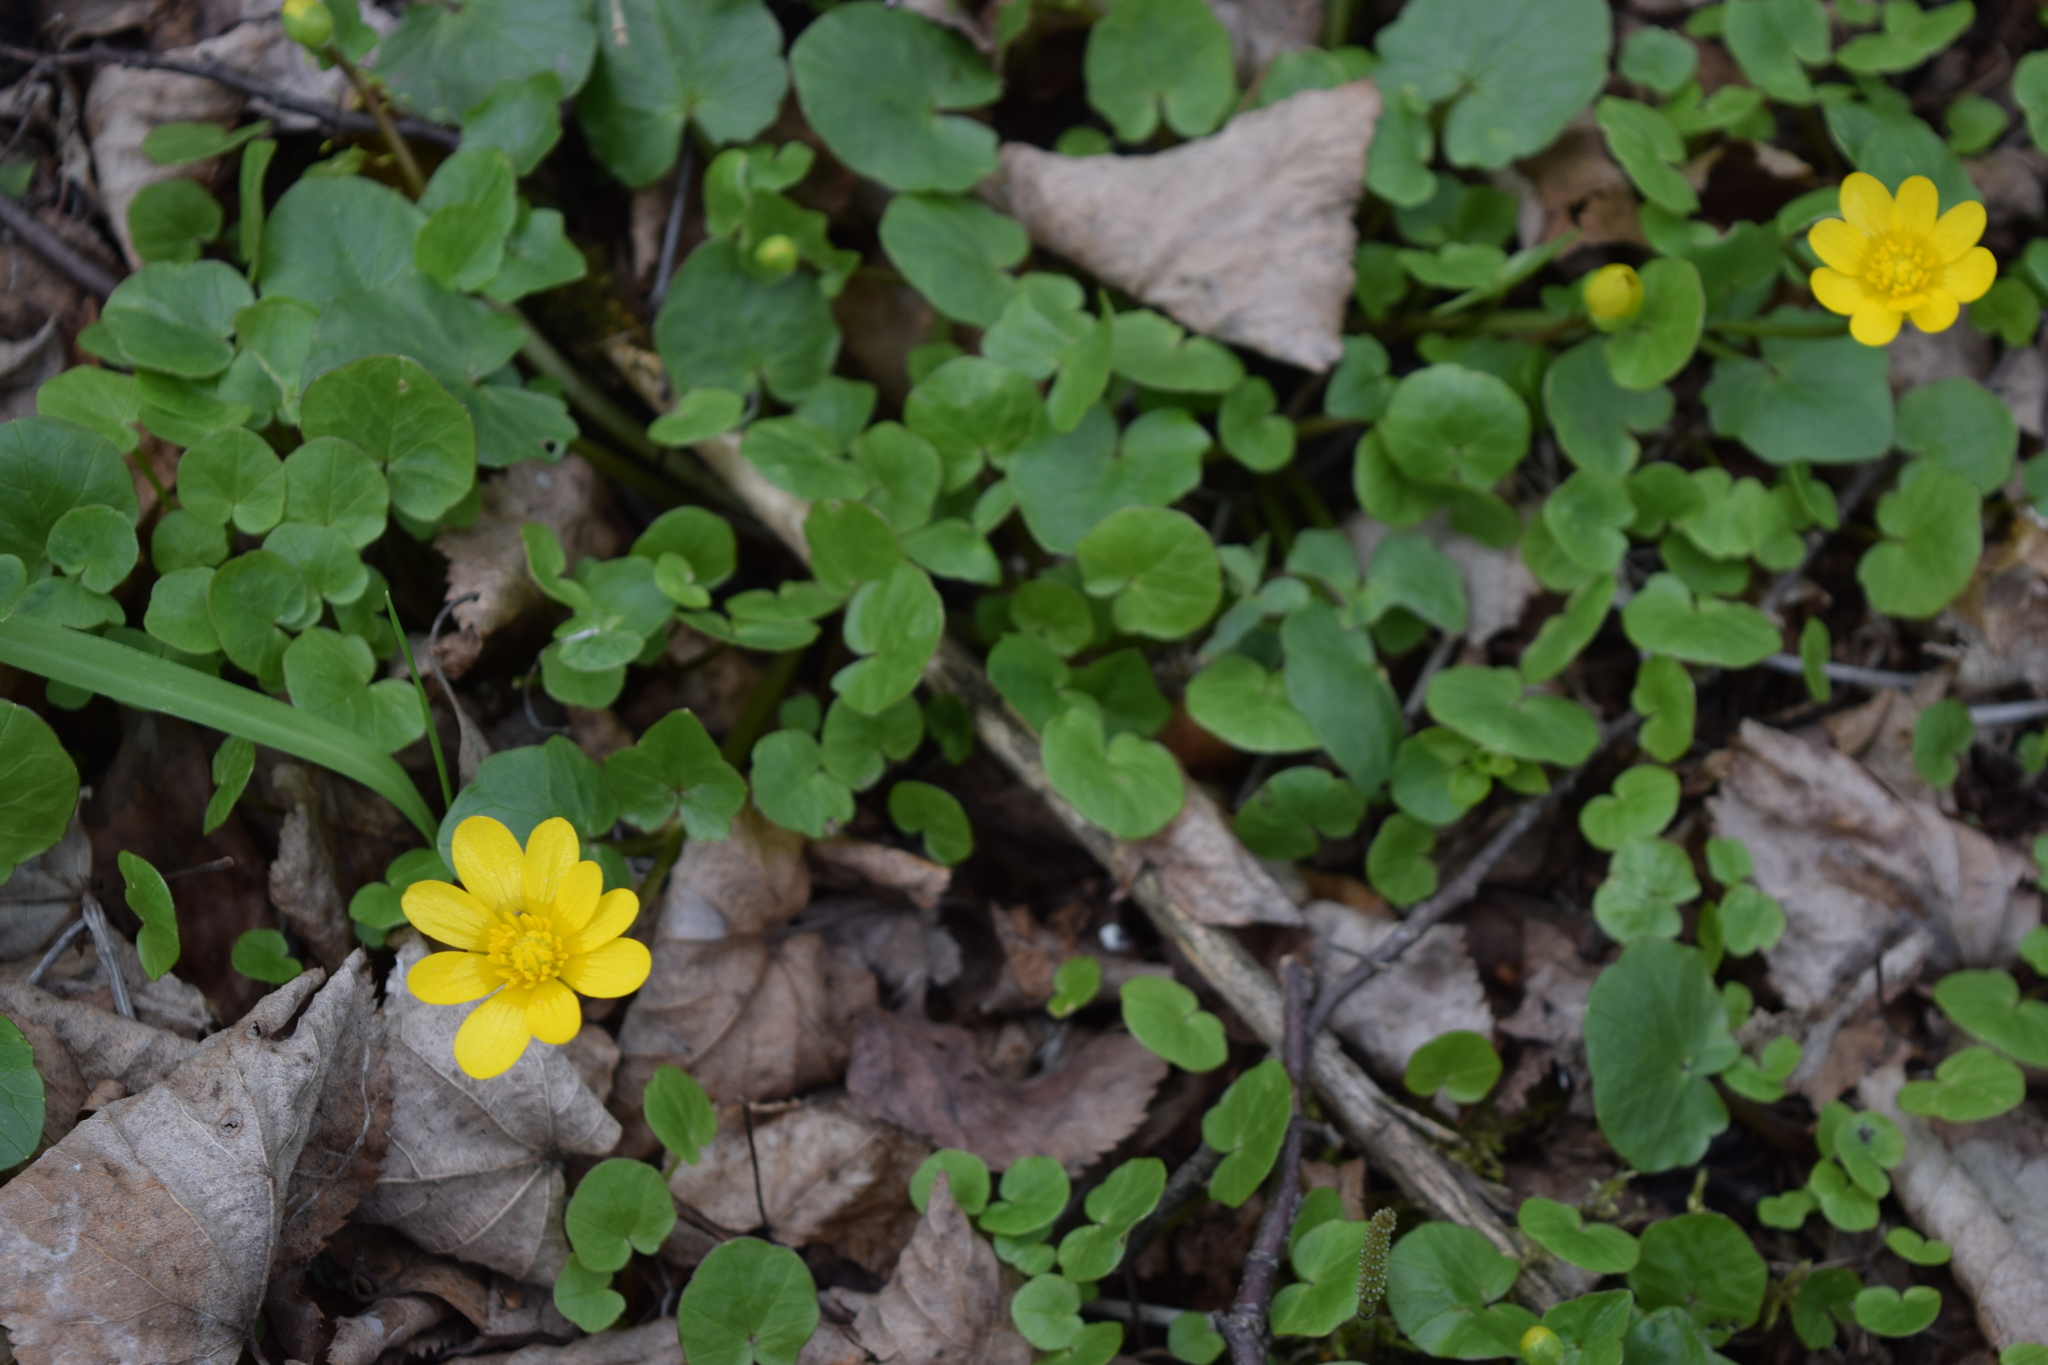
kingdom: Plantae
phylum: Tracheophyta
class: Magnoliopsida
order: Ranunculales
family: Ranunculaceae
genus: Ficaria
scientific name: Ficaria verna
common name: Lesser celandine
